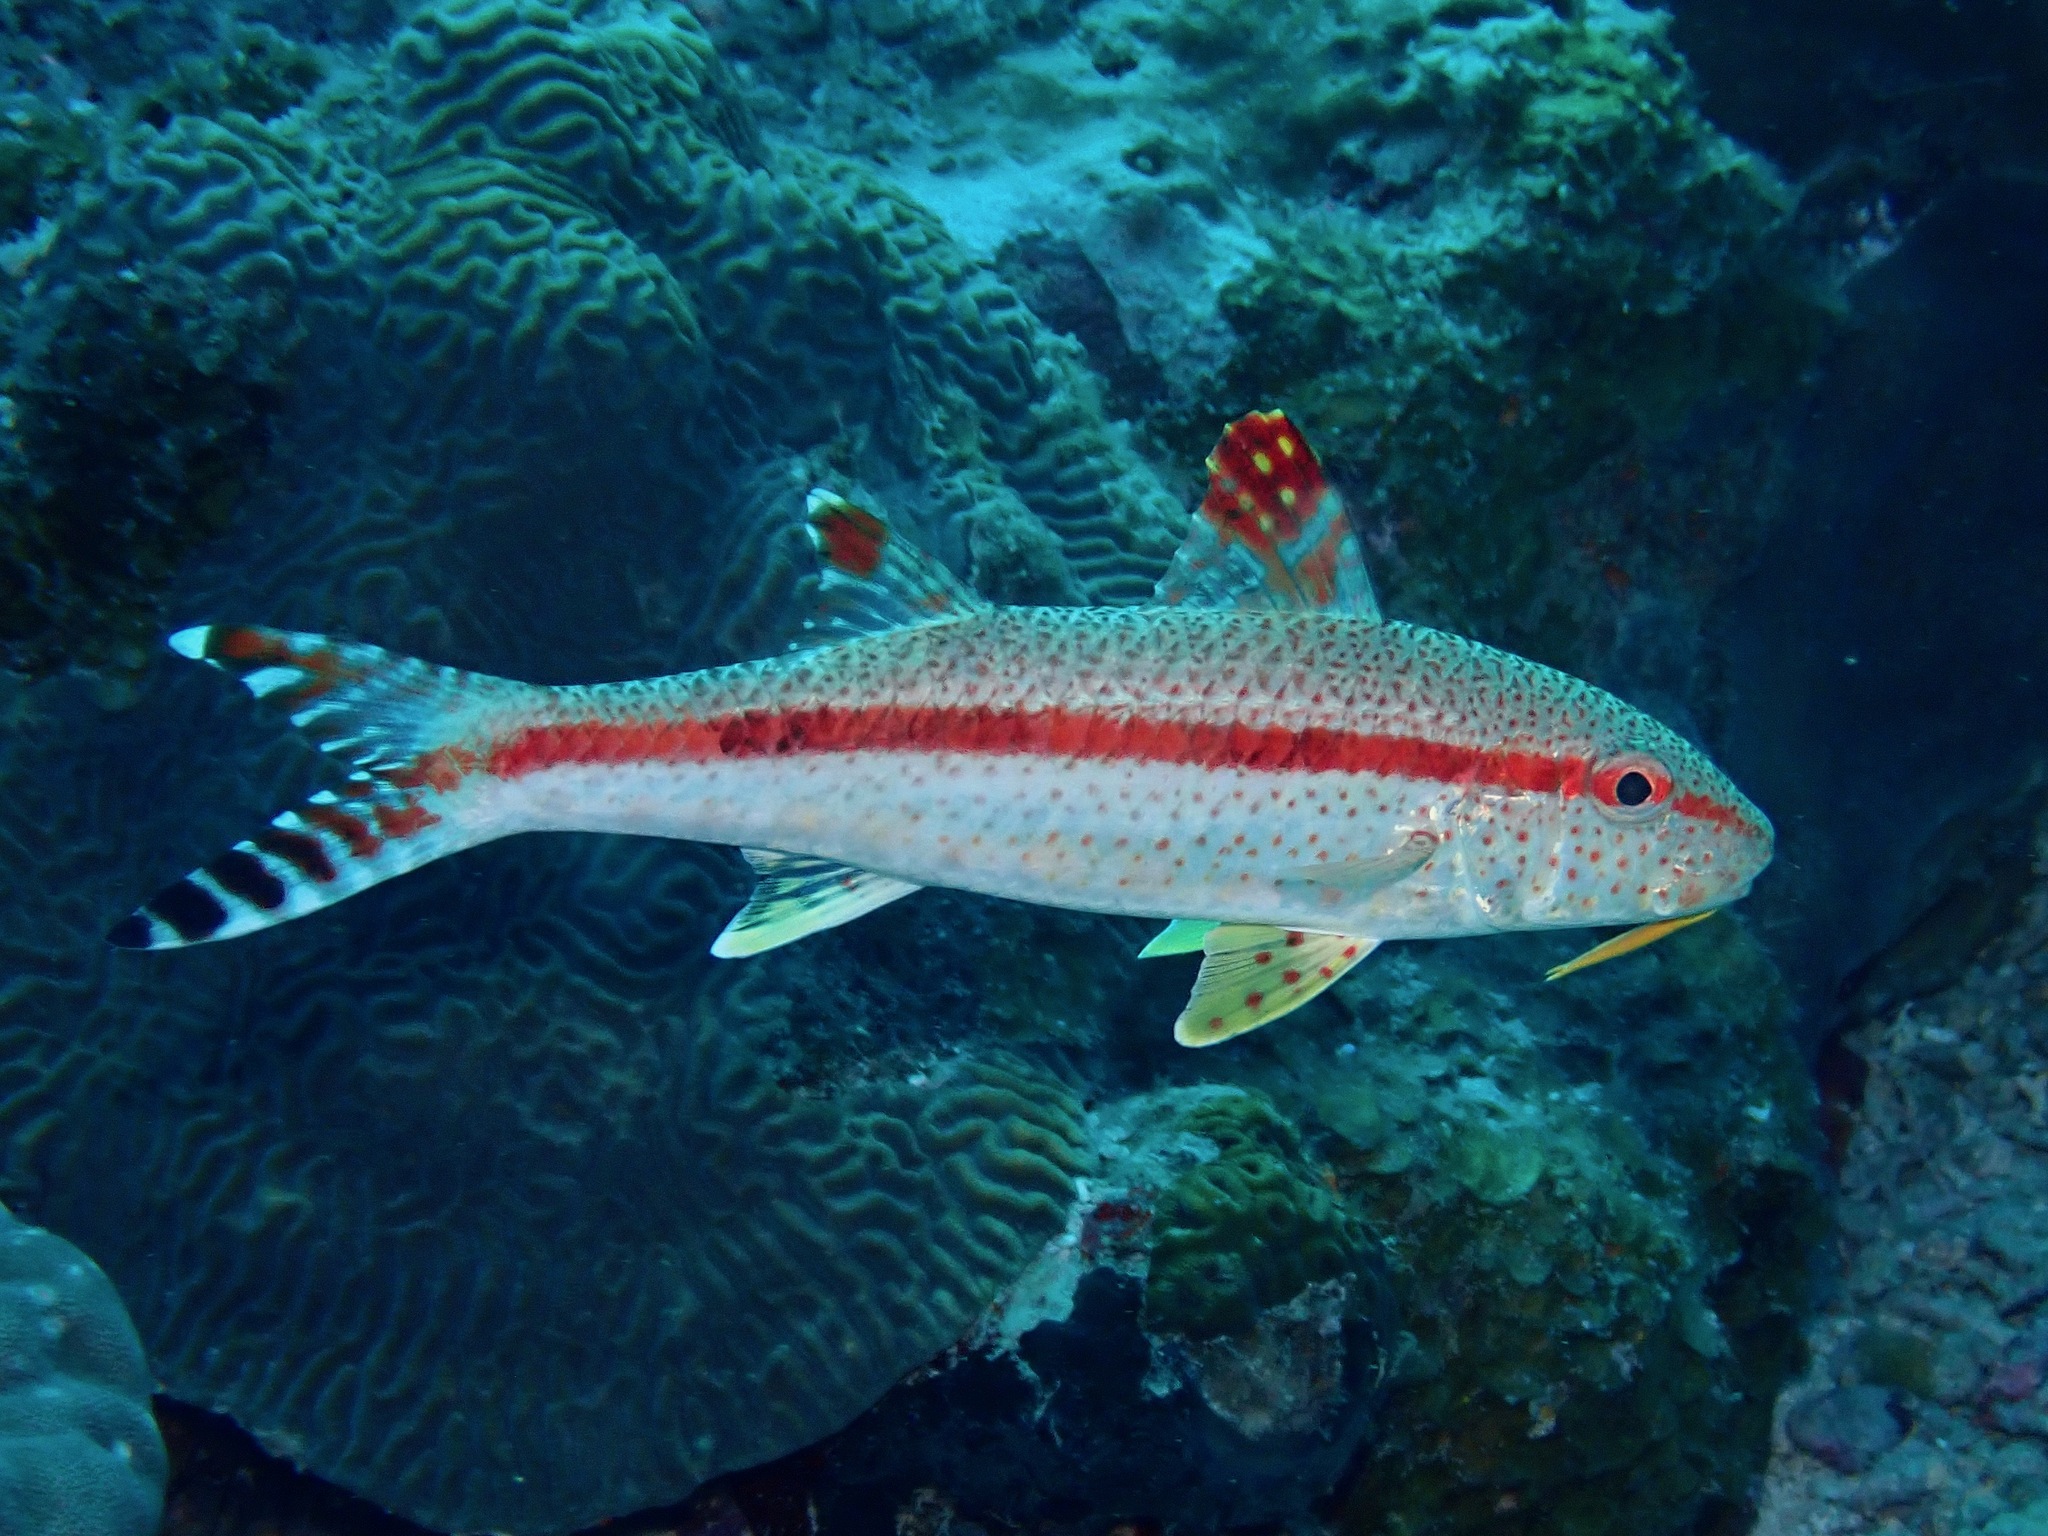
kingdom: Animalia
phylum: Chordata
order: Perciformes
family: Mullidae
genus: Upeneus
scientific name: Upeneus tragula
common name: Freckled goatfish
